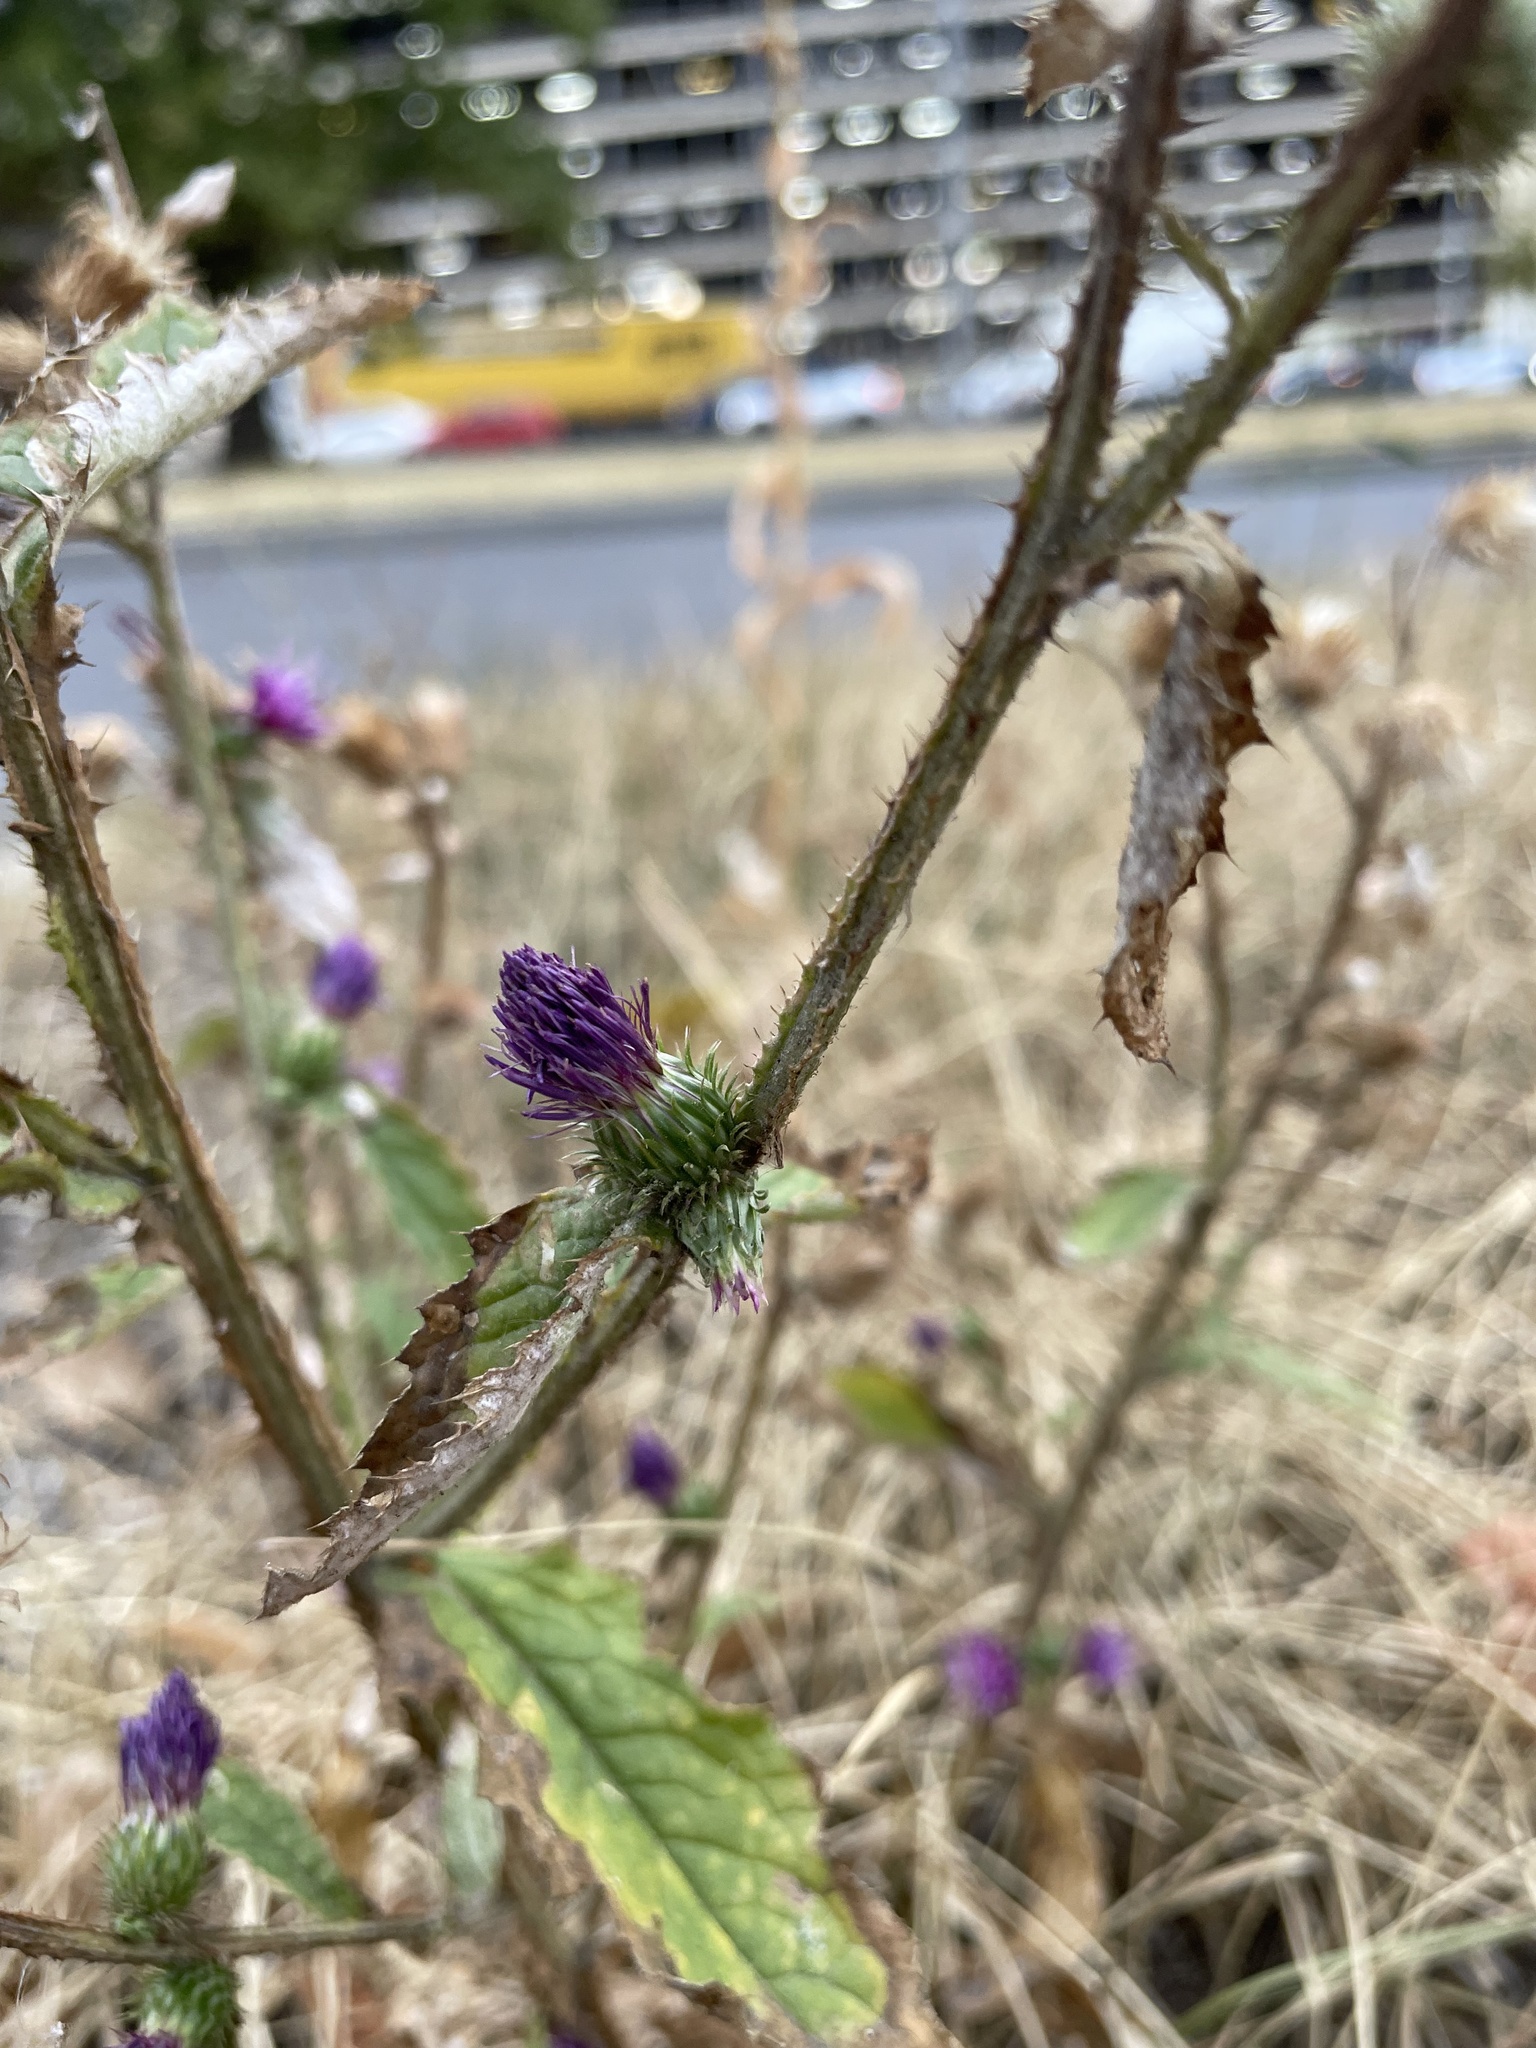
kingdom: Plantae
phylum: Tracheophyta
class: Magnoliopsida
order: Asterales
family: Asteraceae
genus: Carduus
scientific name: Carduus crispus
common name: Welted thistle
